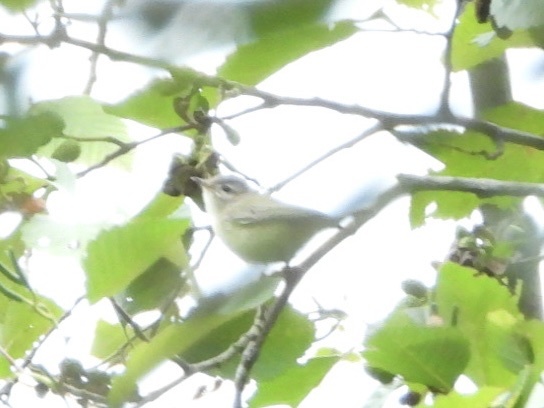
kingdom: Animalia
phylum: Chordata
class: Aves
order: Passeriformes
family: Vireonidae
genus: Vireo
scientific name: Vireo gilvus
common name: Warbling vireo
